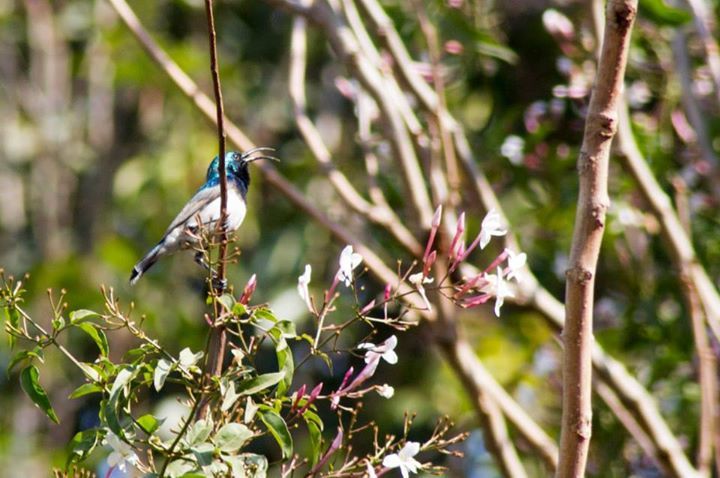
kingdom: Animalia
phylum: Chordata
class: Aves
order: Passeriformes
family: Nectariniidae
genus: Cinnyris
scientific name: Cinnyris talatala
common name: White-bellied sunbird
